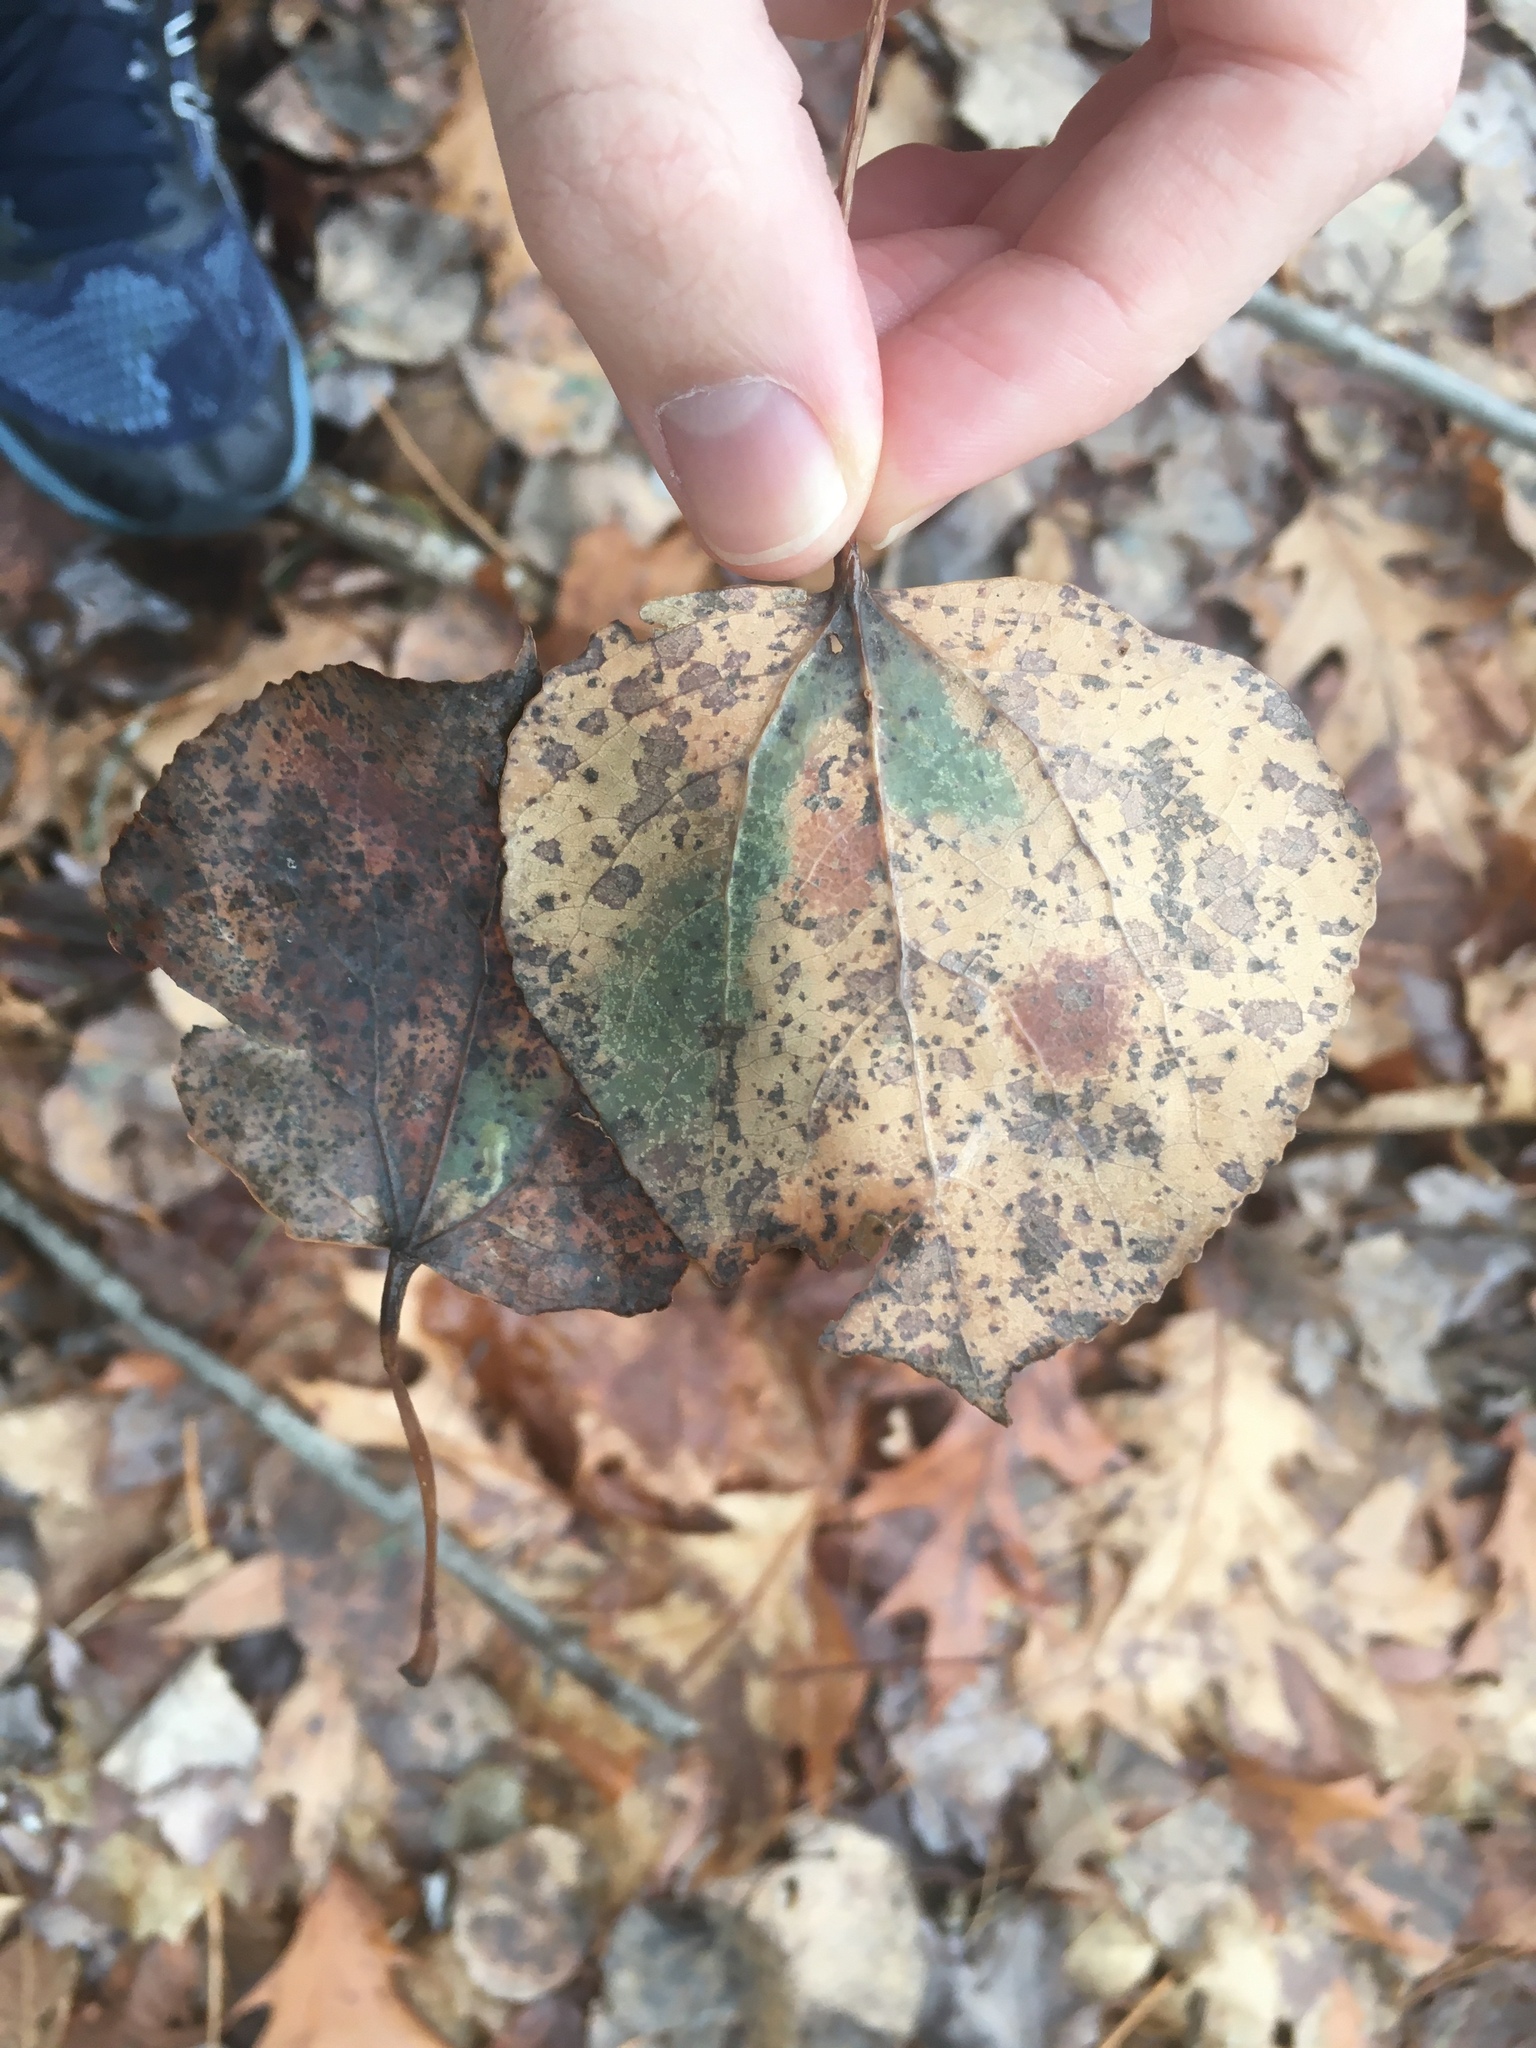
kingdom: Plantae
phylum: Tracheophyta
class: Magnoliopsida
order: Malpighiales
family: Salicaceae
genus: Populus
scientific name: Populus tremuloides
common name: Quaking aspen
